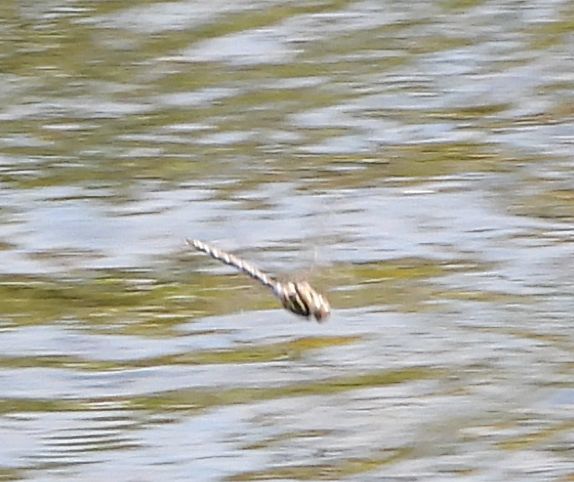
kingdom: Animalia
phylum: Arthropoda
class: Insecta
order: Odonata
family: Aeshnidae
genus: Basiaeschna
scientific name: Basiaeschna janata
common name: Springtime darner
